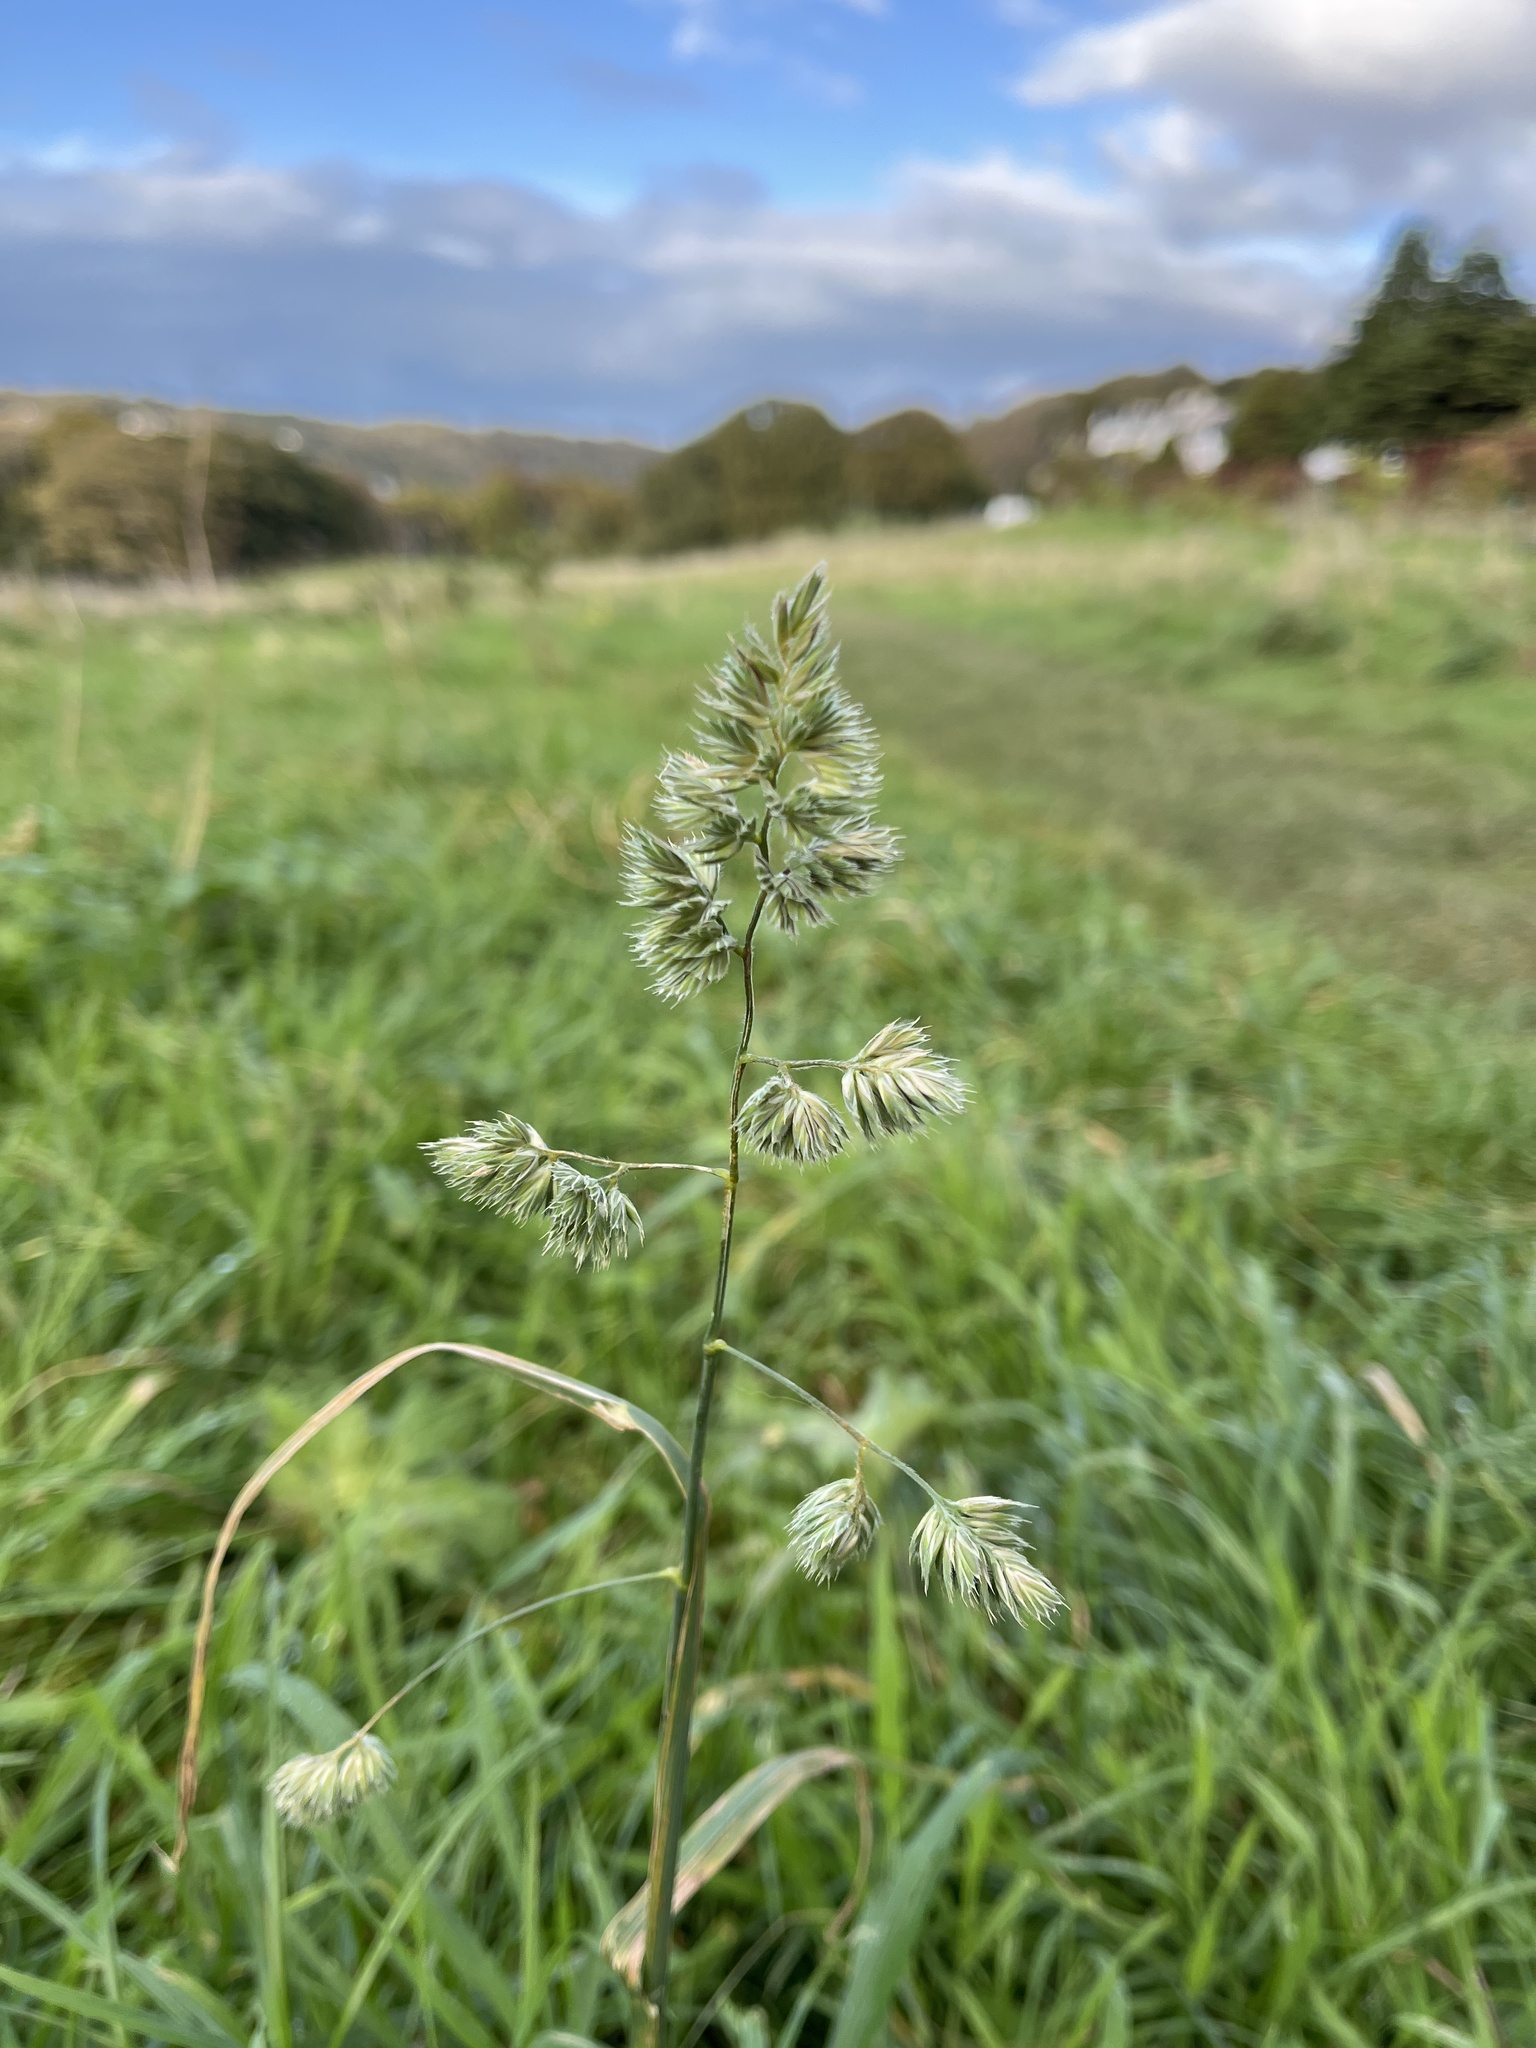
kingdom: Plantae
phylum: Tracheophyta
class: Liliopsida
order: Poales
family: Poaceae
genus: Dactylis
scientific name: Dactylis glomerata
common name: Orchardgrass
